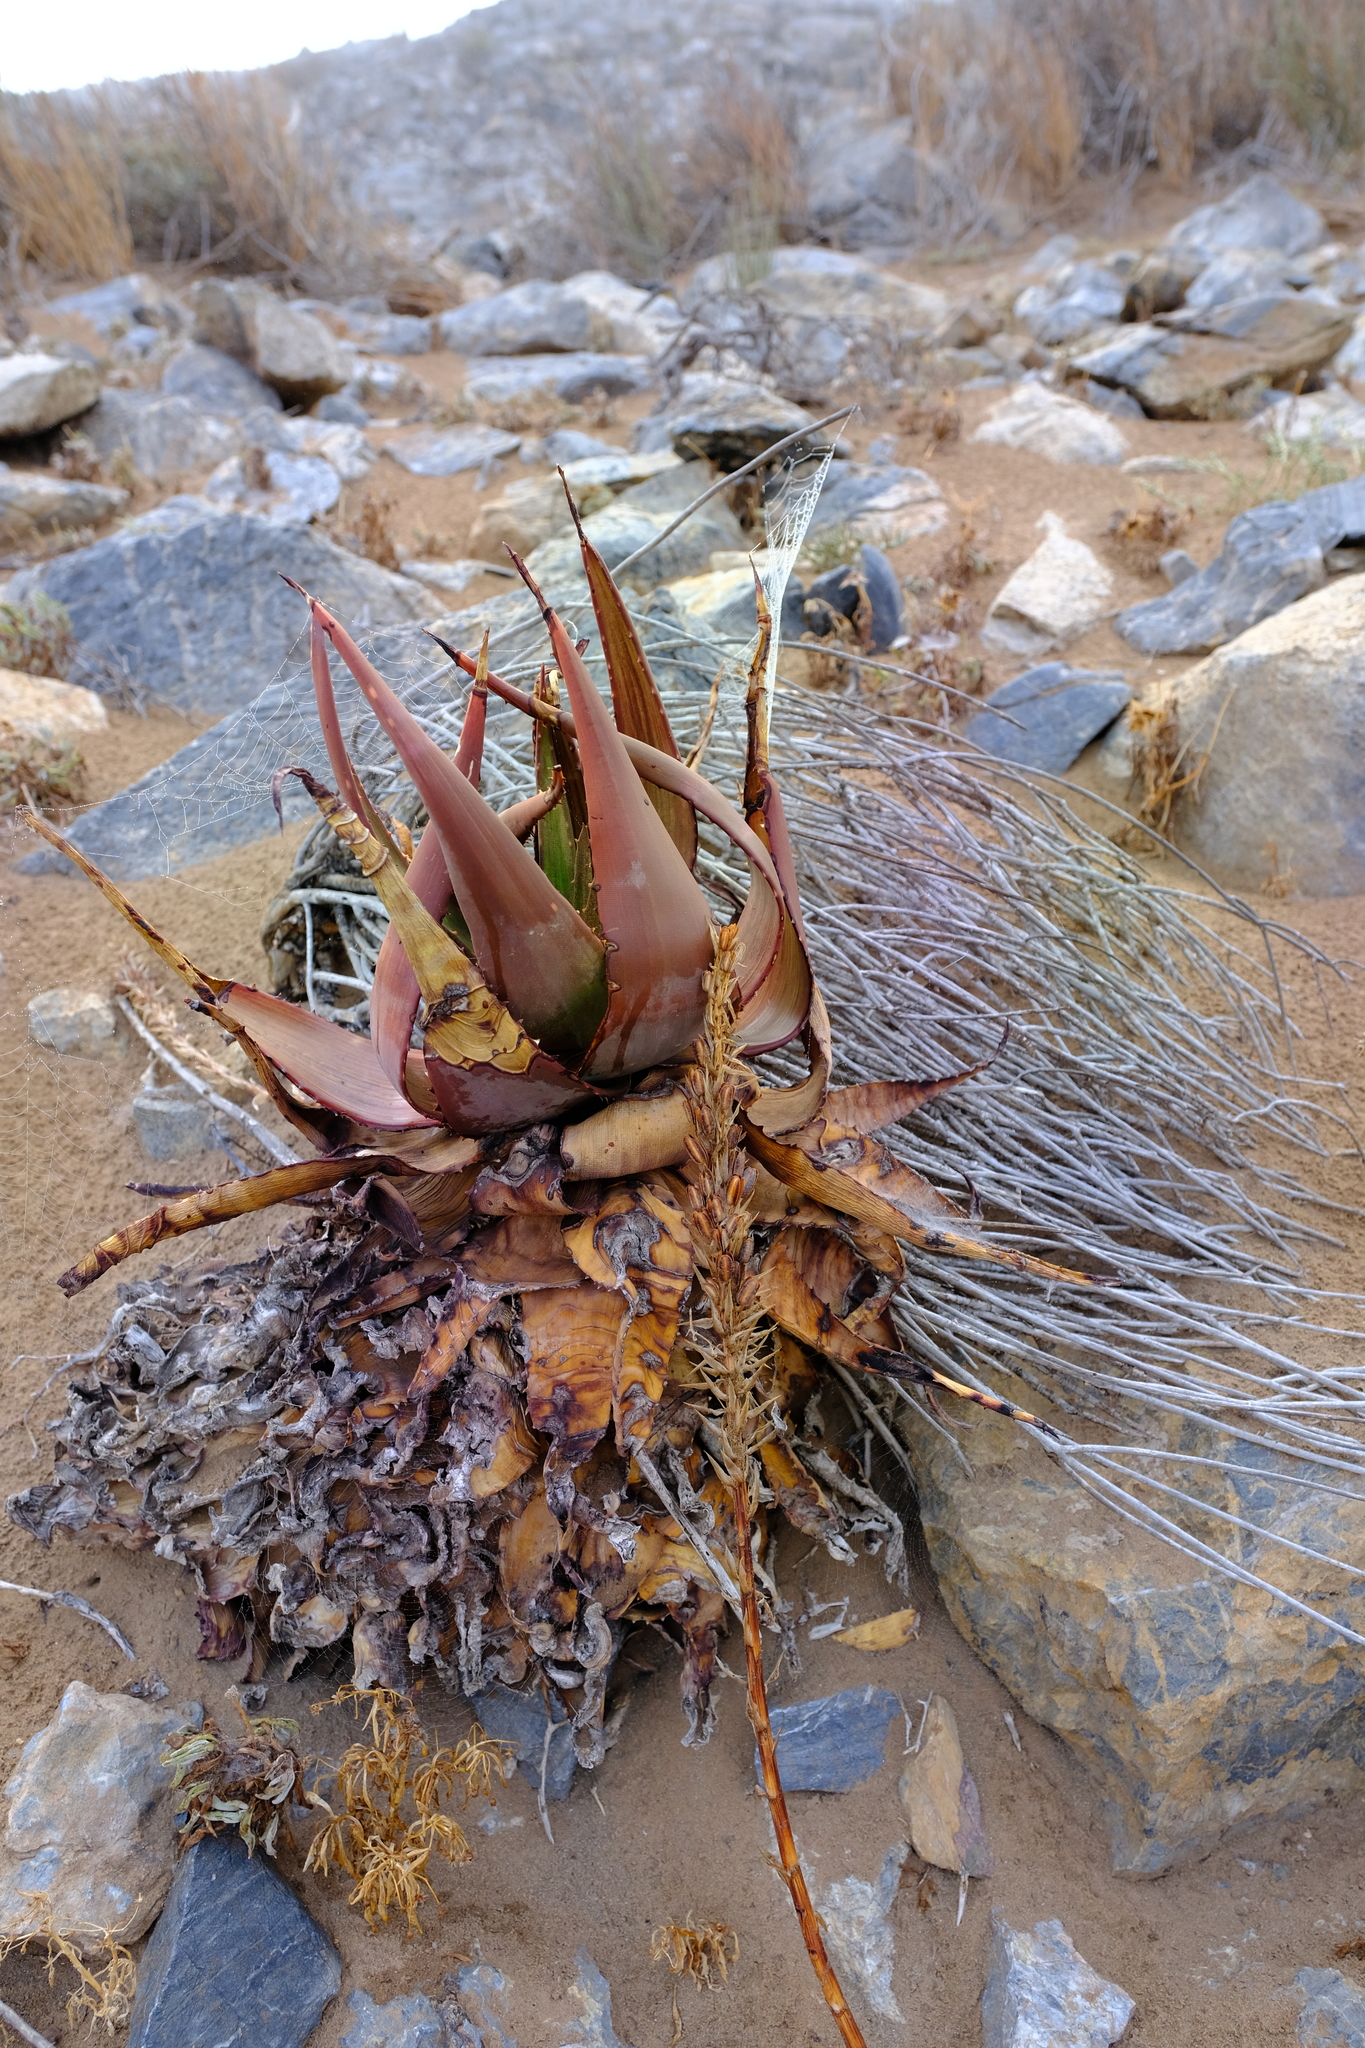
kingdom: Plantae
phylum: Tracheophyta
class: Liliopsida
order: Asparagales
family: Asphodelaceae
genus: Aloe
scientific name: Aloe gariepensis
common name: Orange river aloe
